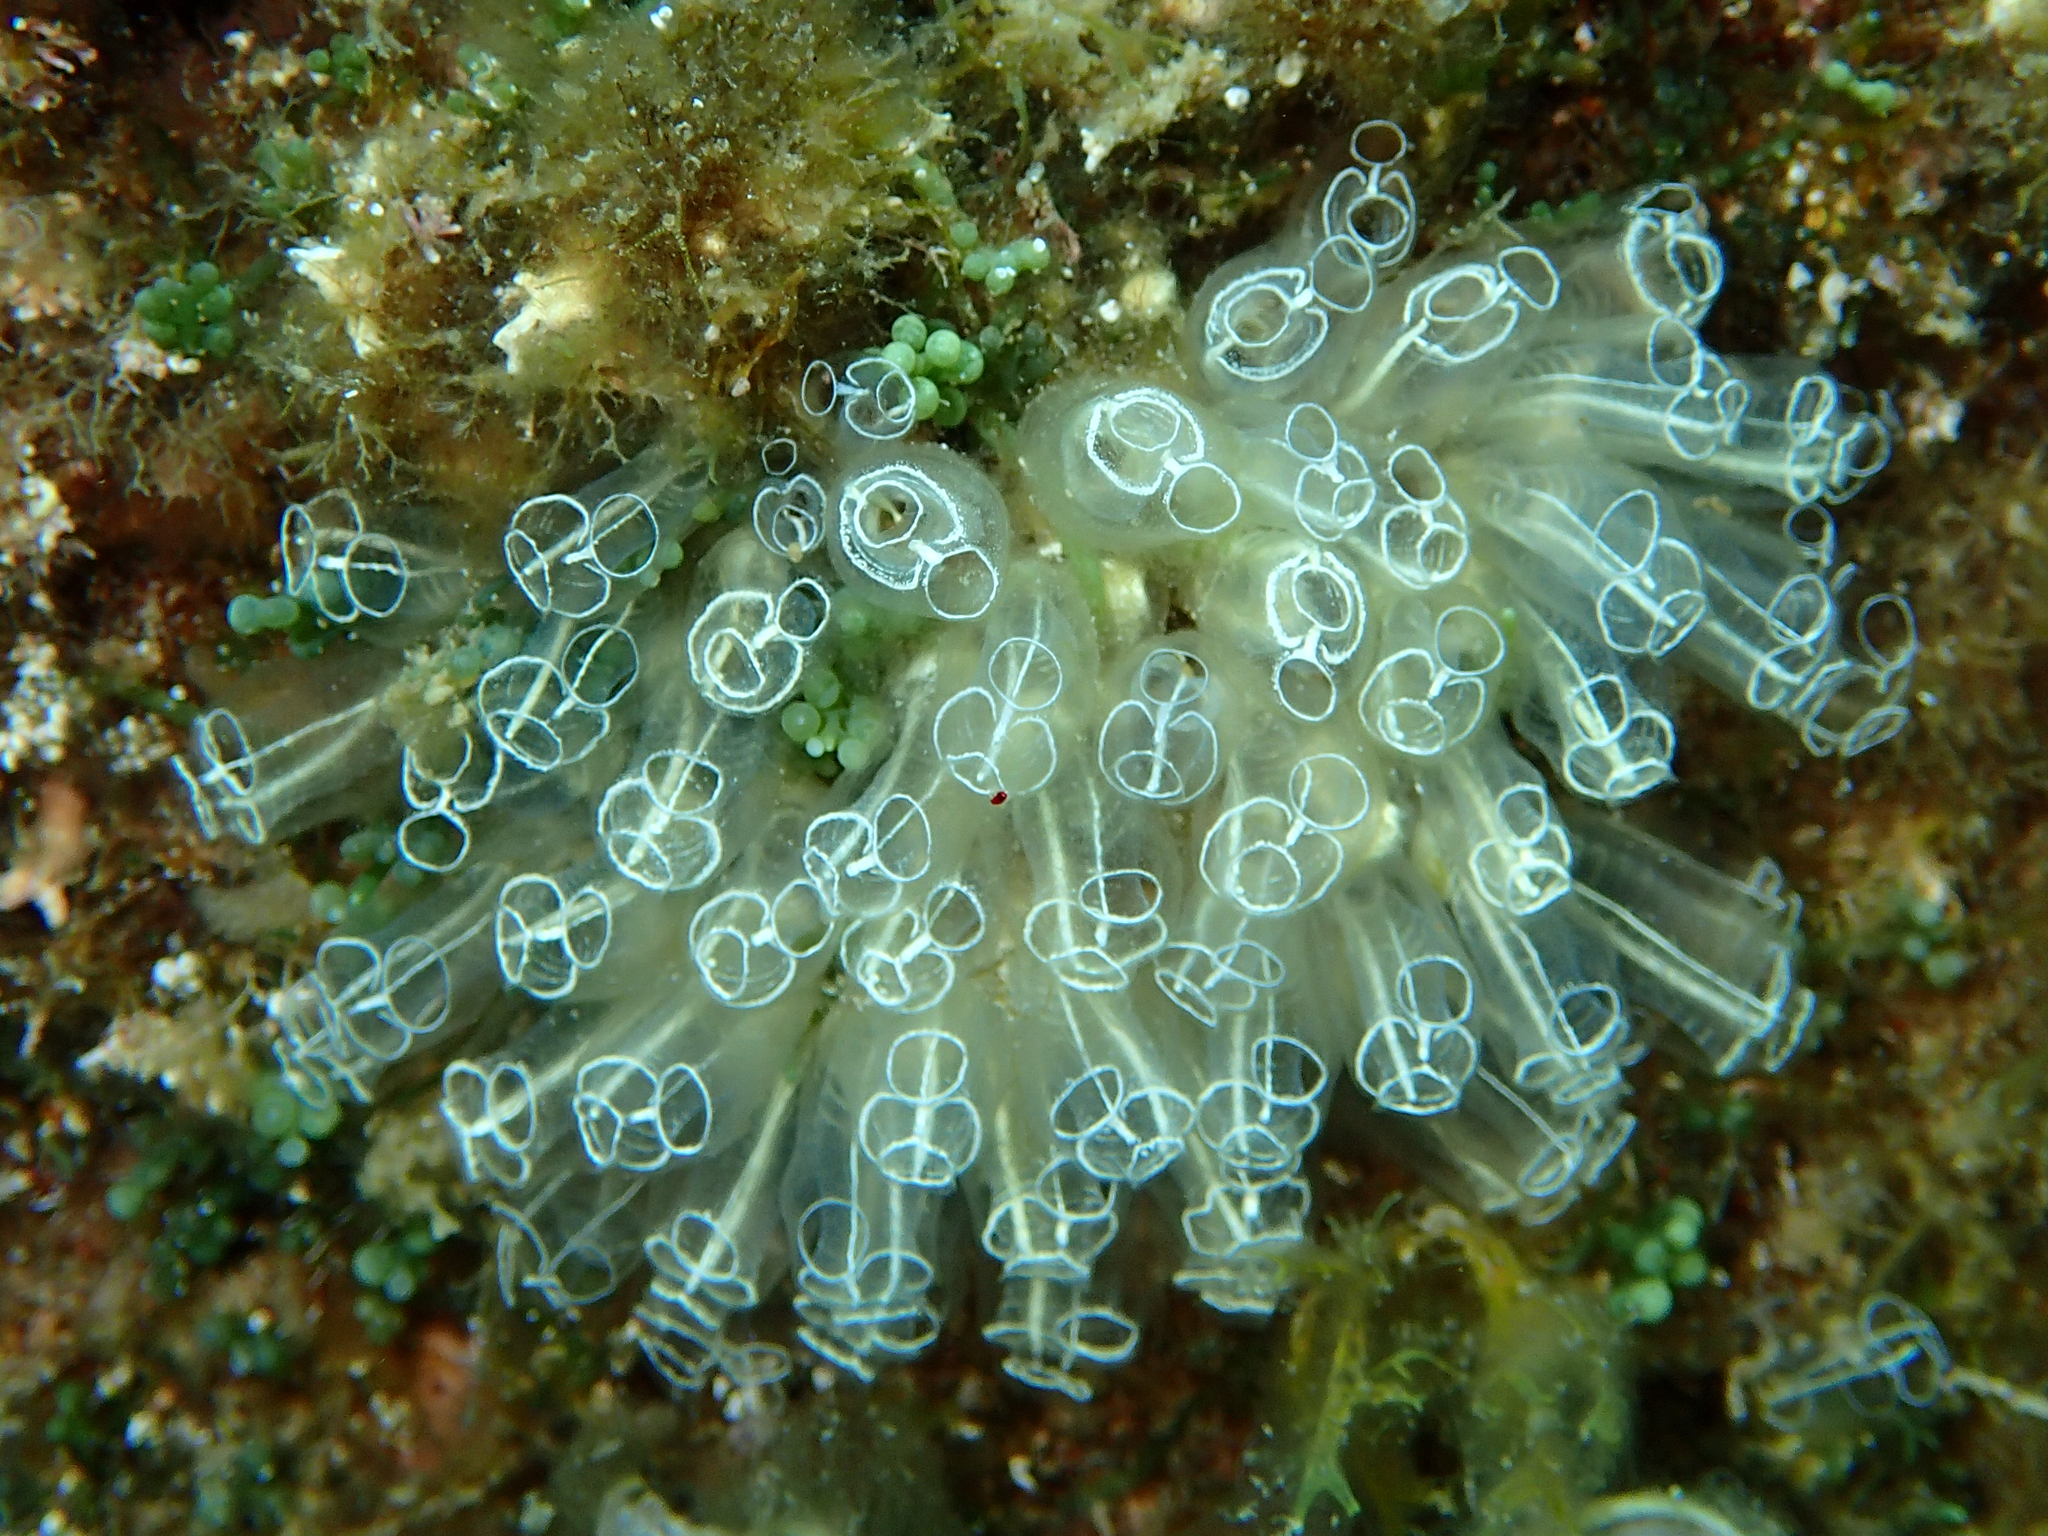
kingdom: Animalia
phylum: Chordata
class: Ascidiacea
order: Aplousobranchia
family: Clavelinidae
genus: Clavelina
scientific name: Clavelina lepadiformis
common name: Light bulb tunicate
